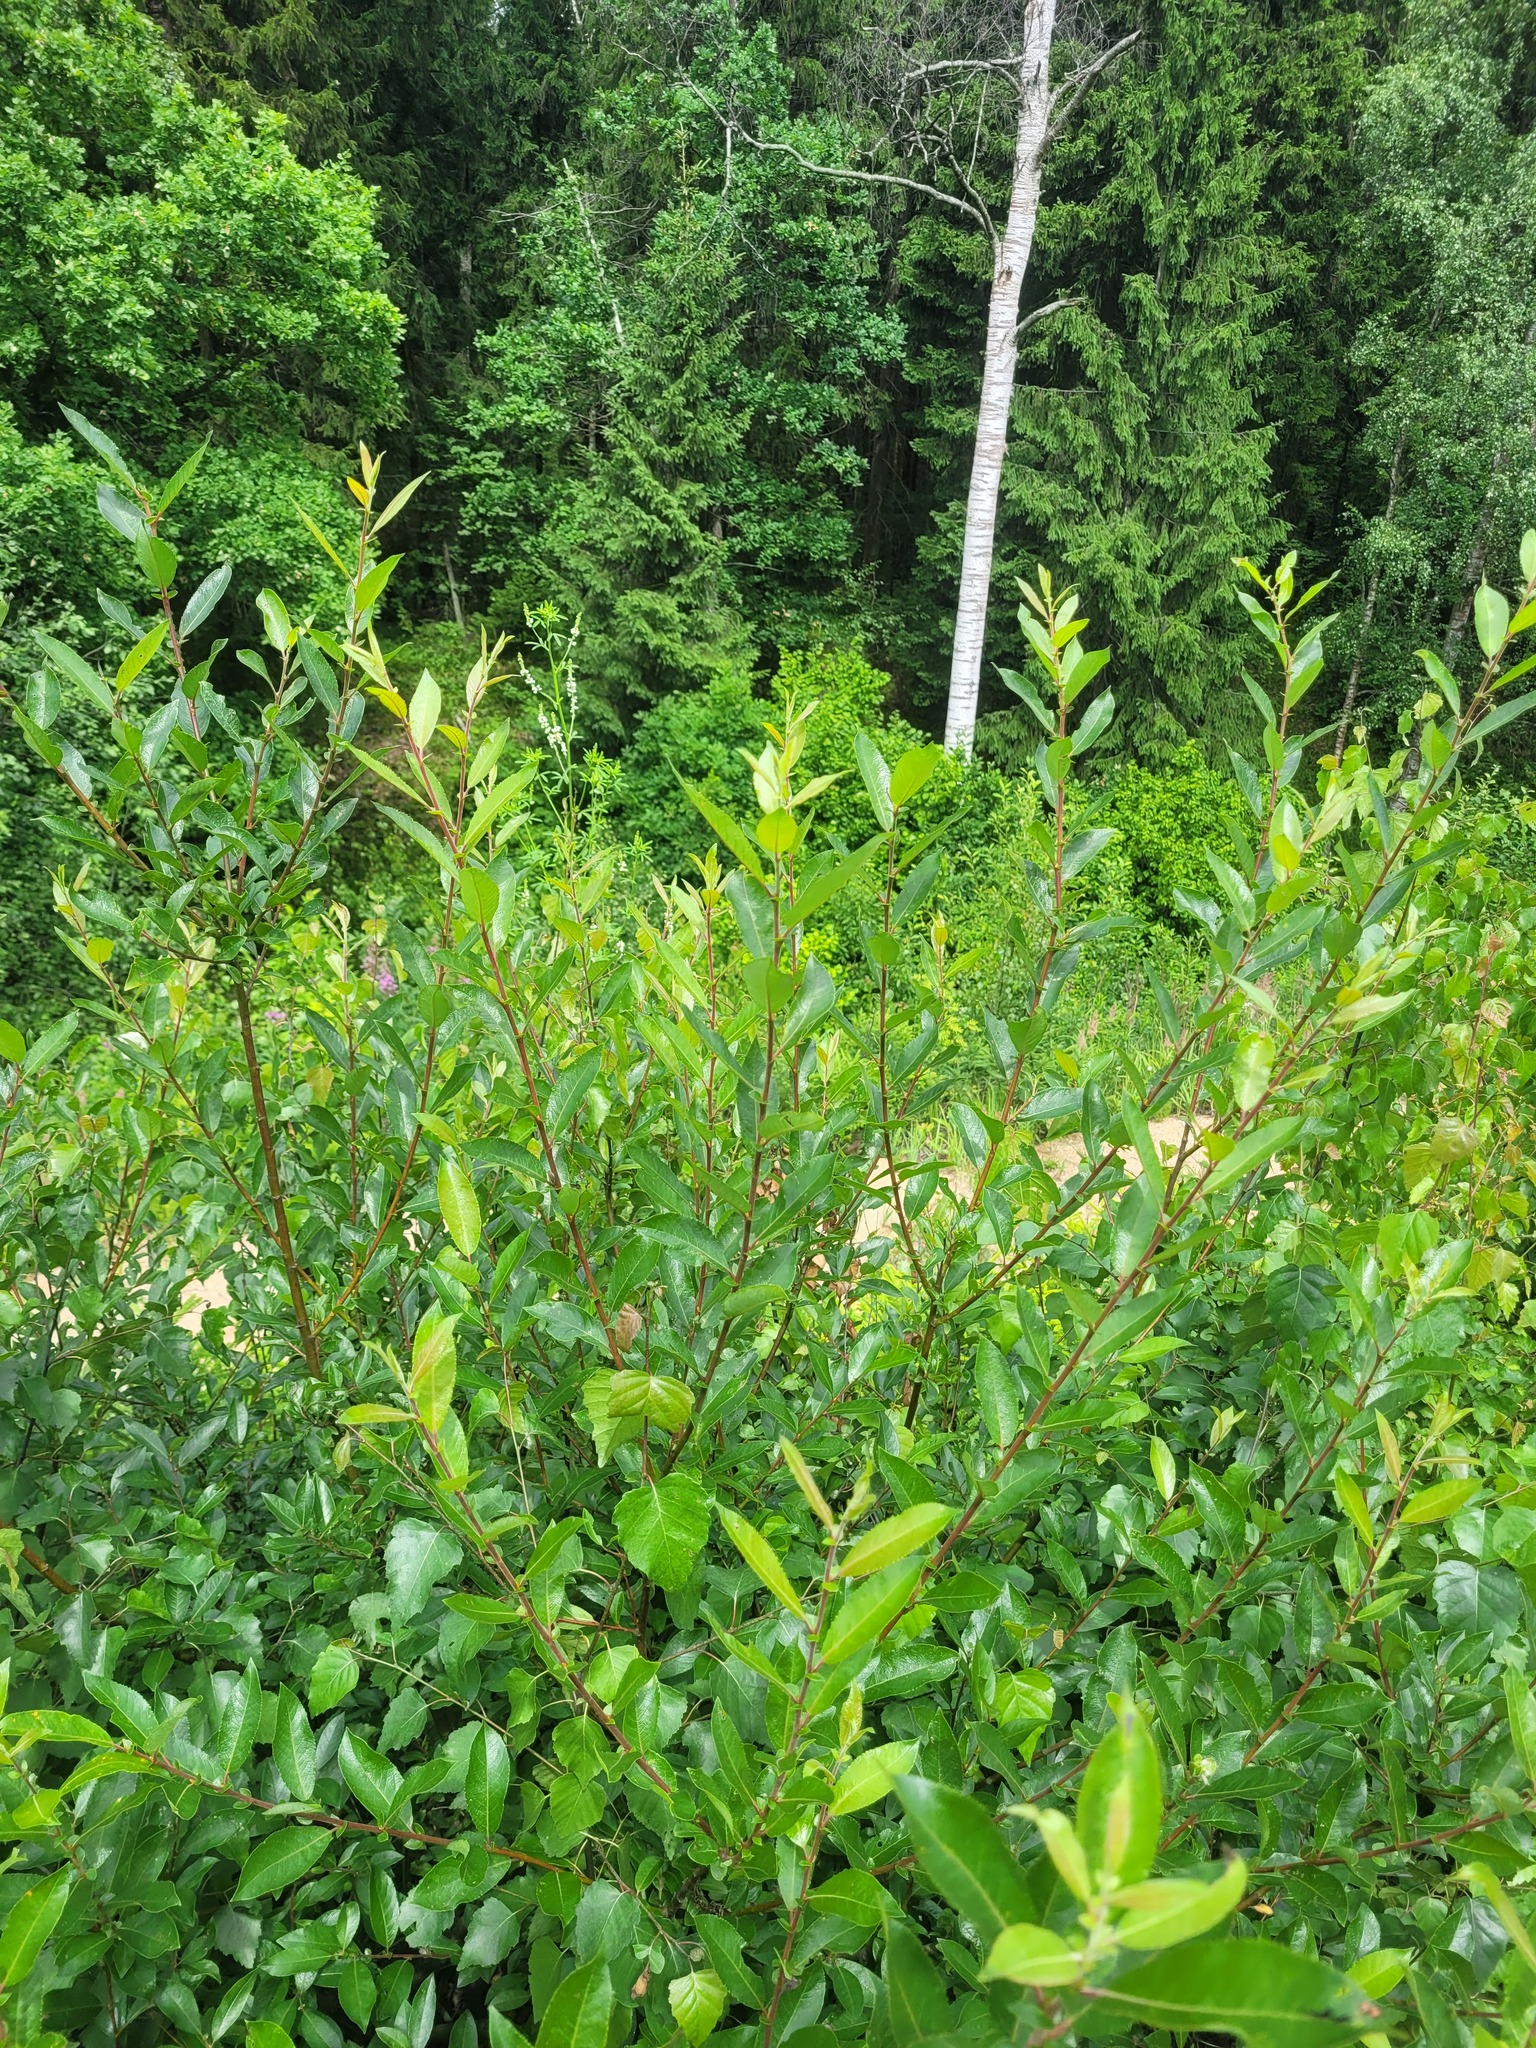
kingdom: Plantae
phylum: Tracheophyta
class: Magnoliopsida
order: Malpighiales
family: Salicaceae
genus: Salix
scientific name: Salix myrsinifolia
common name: Dark-leaved willow
